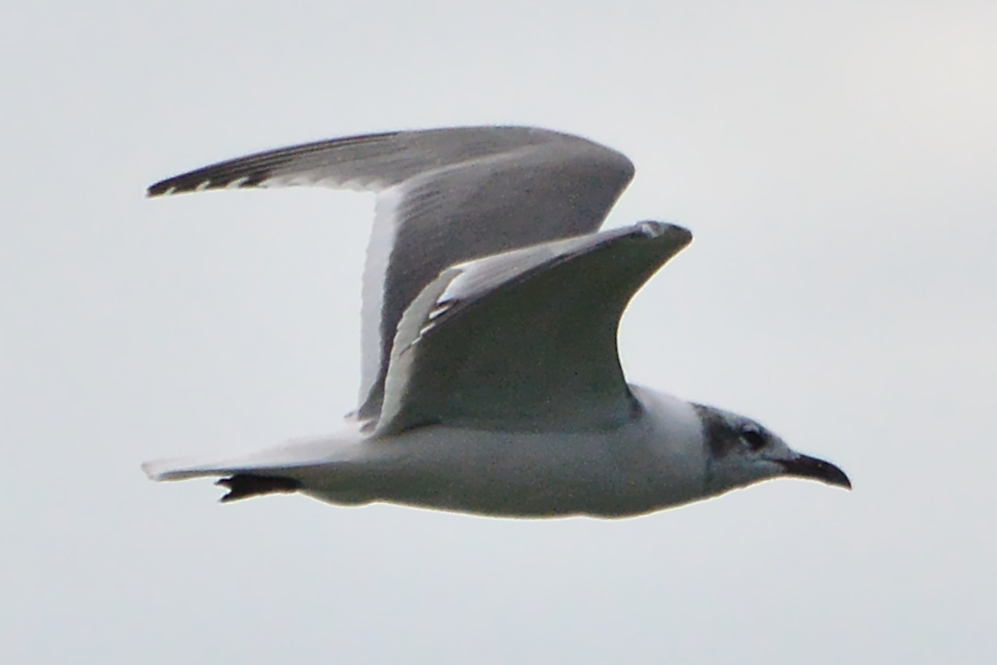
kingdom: Animalia
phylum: Chordata
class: Aves
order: Charadriiformes
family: Laridae
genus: Leucophaeus
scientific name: Leucophaeus atricilla
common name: Laughing gull
